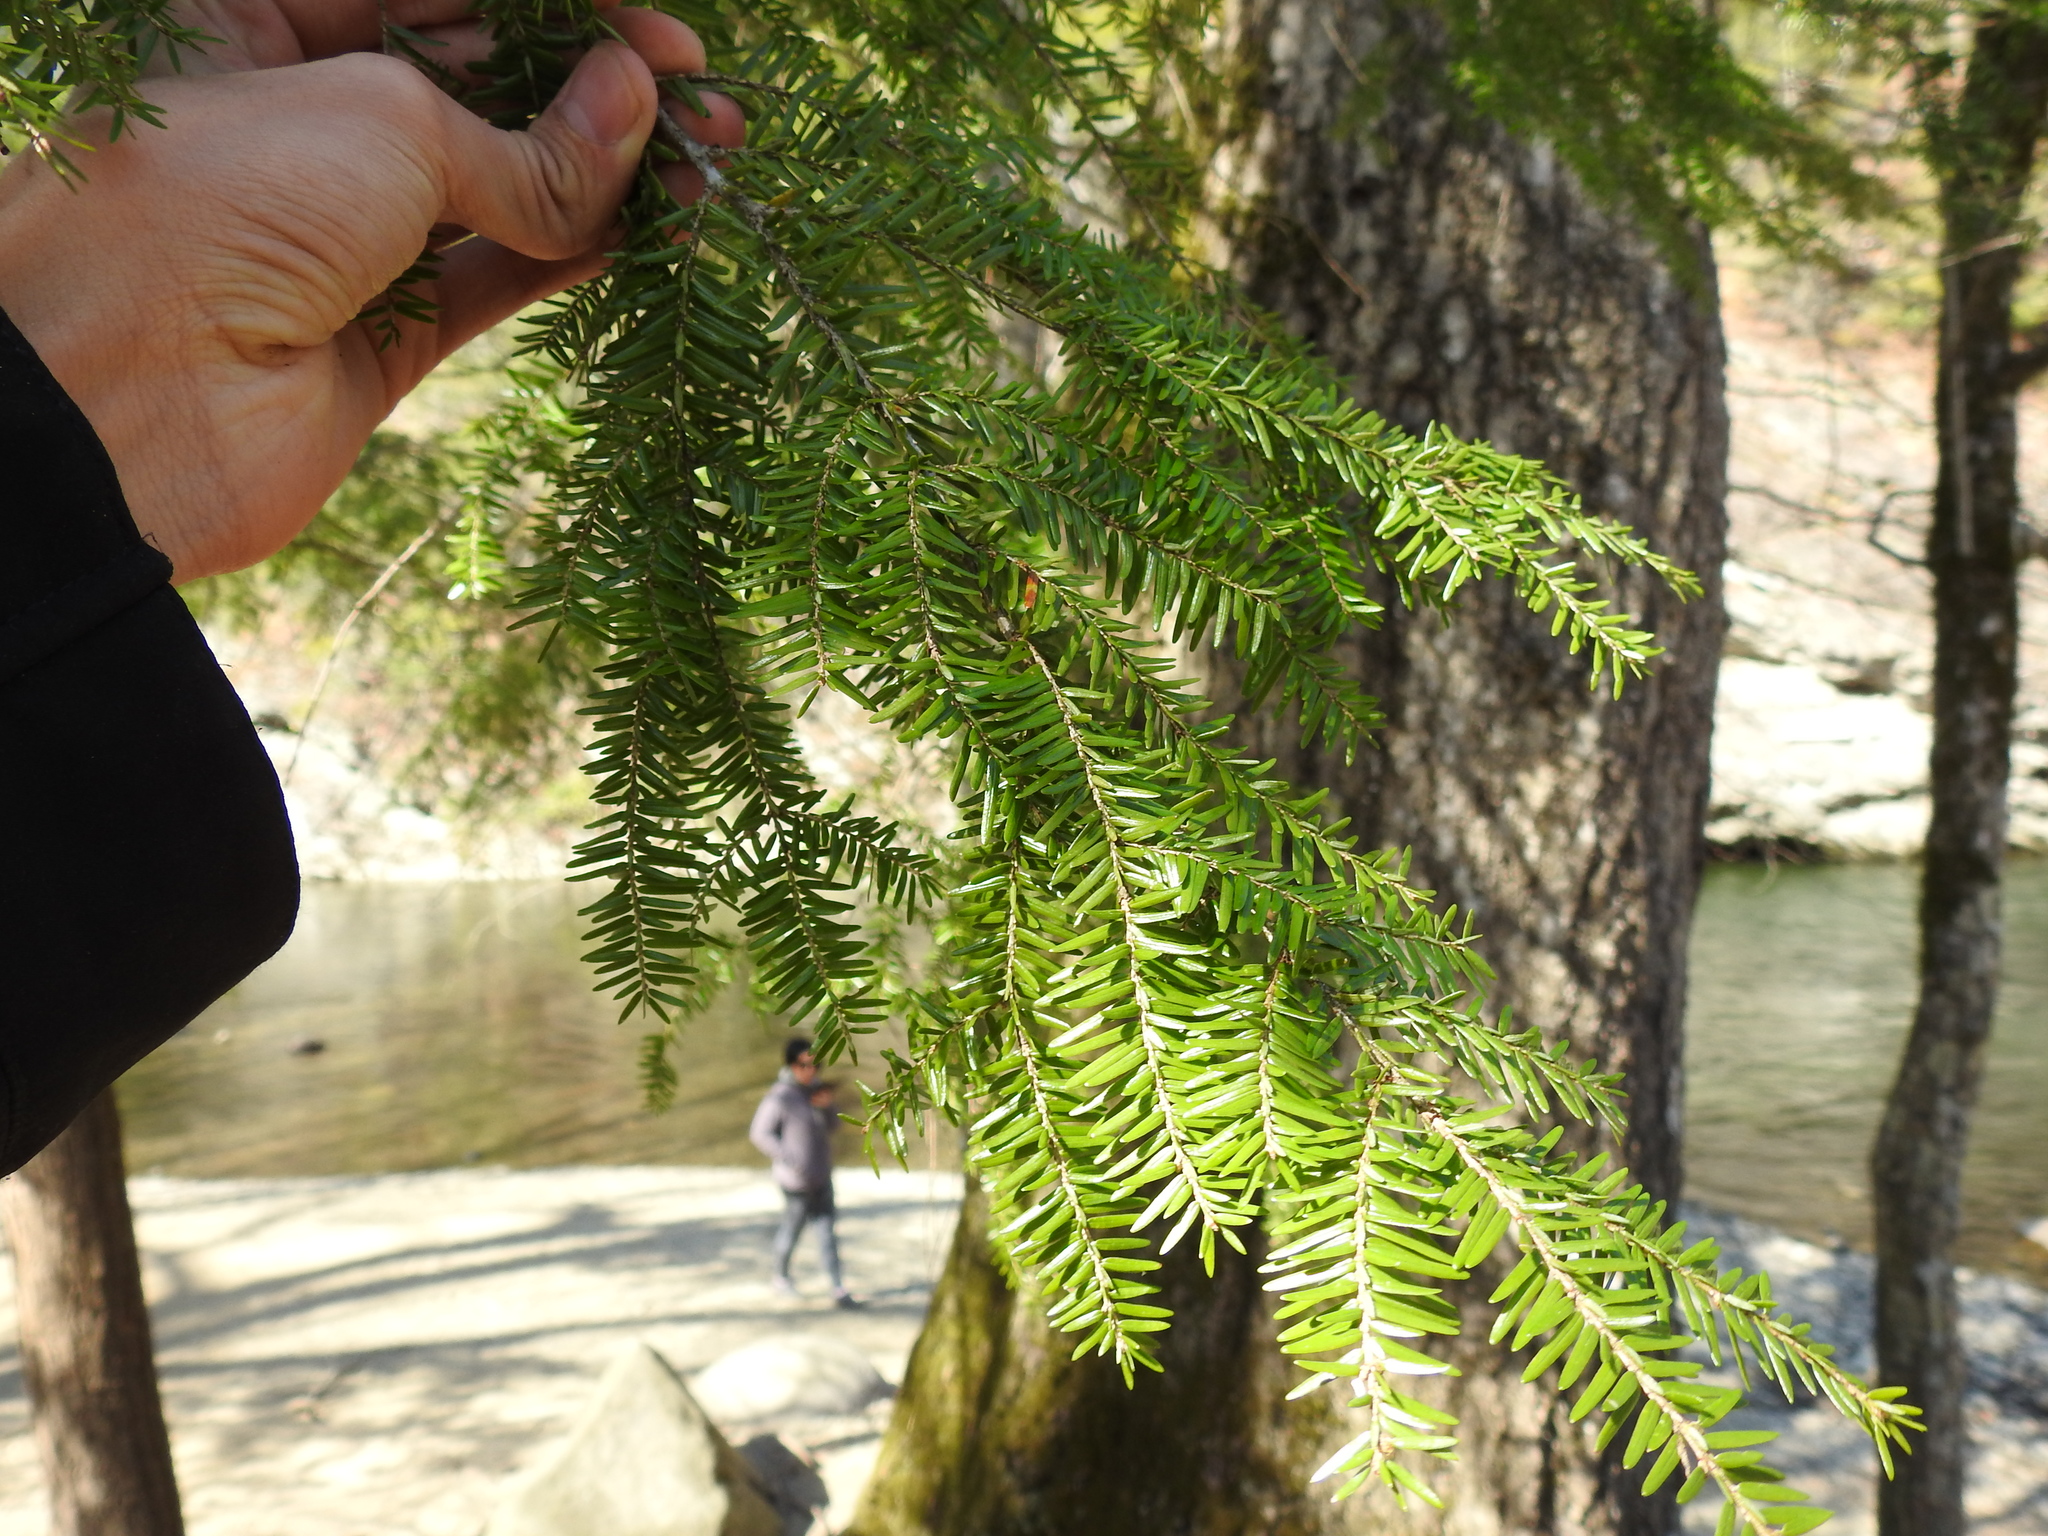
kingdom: Plantae
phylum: Tracheophyta
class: Pinopsida
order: Pinales
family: Pinaceae
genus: Tsuga
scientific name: Tsuga canadensis
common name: Eastern hemlock
